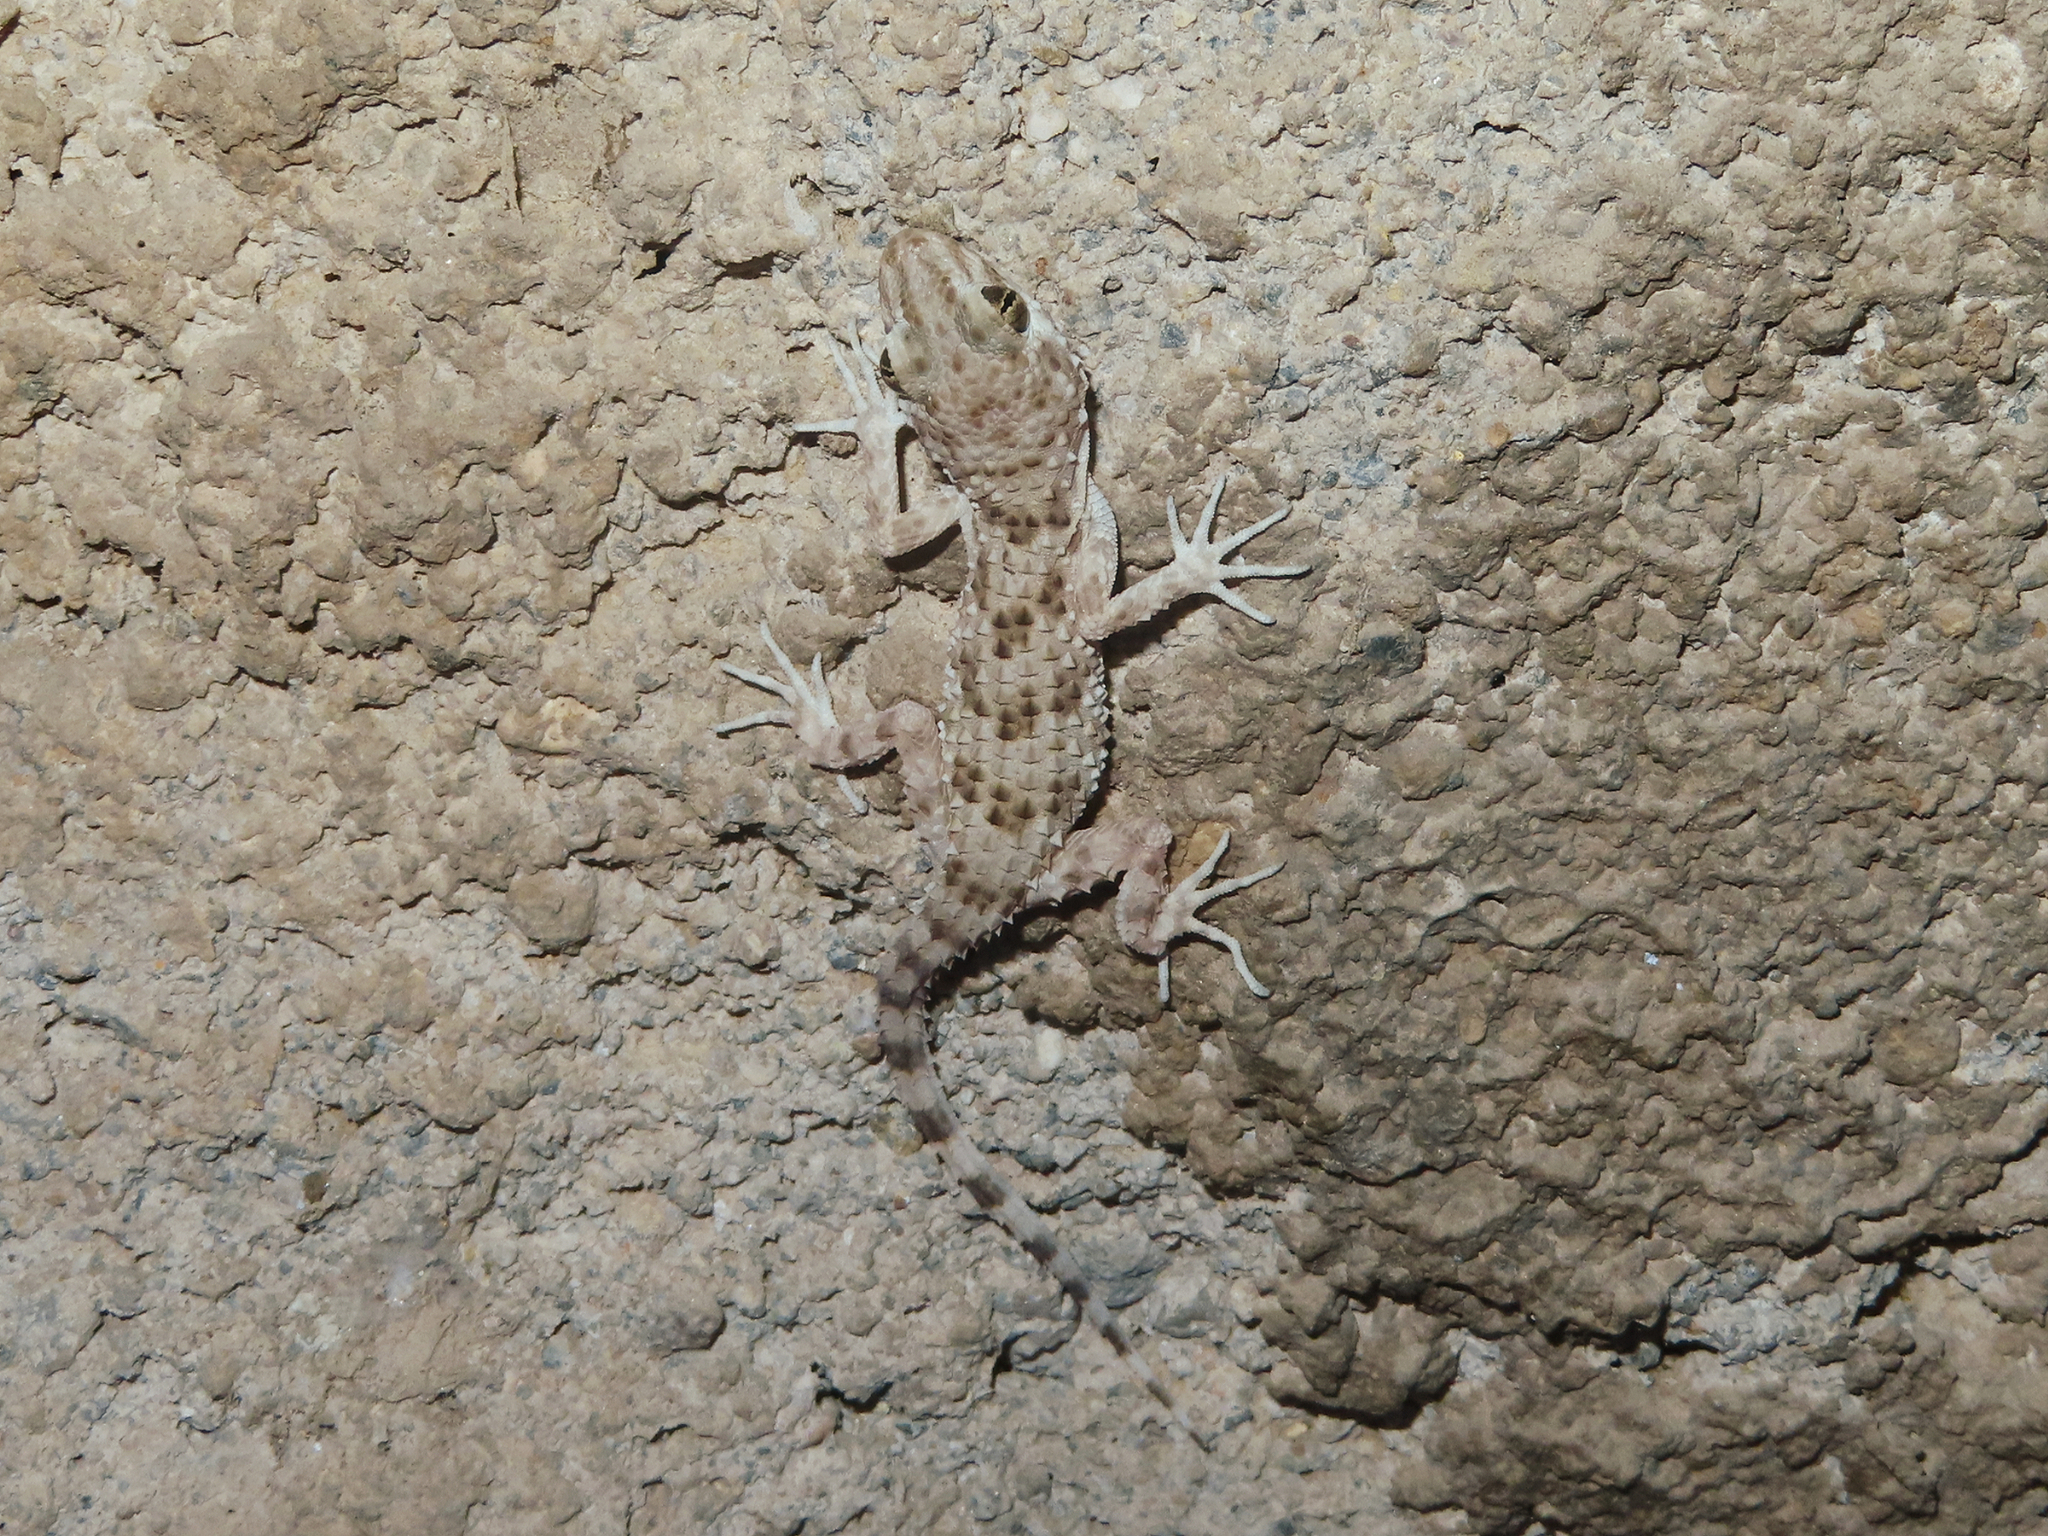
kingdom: Animalia
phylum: Chordata
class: Squamata
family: Gekkonidae
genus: Tenuidactylus
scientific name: Tenuidactylus caspius
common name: Caspian bent-toed gecko
